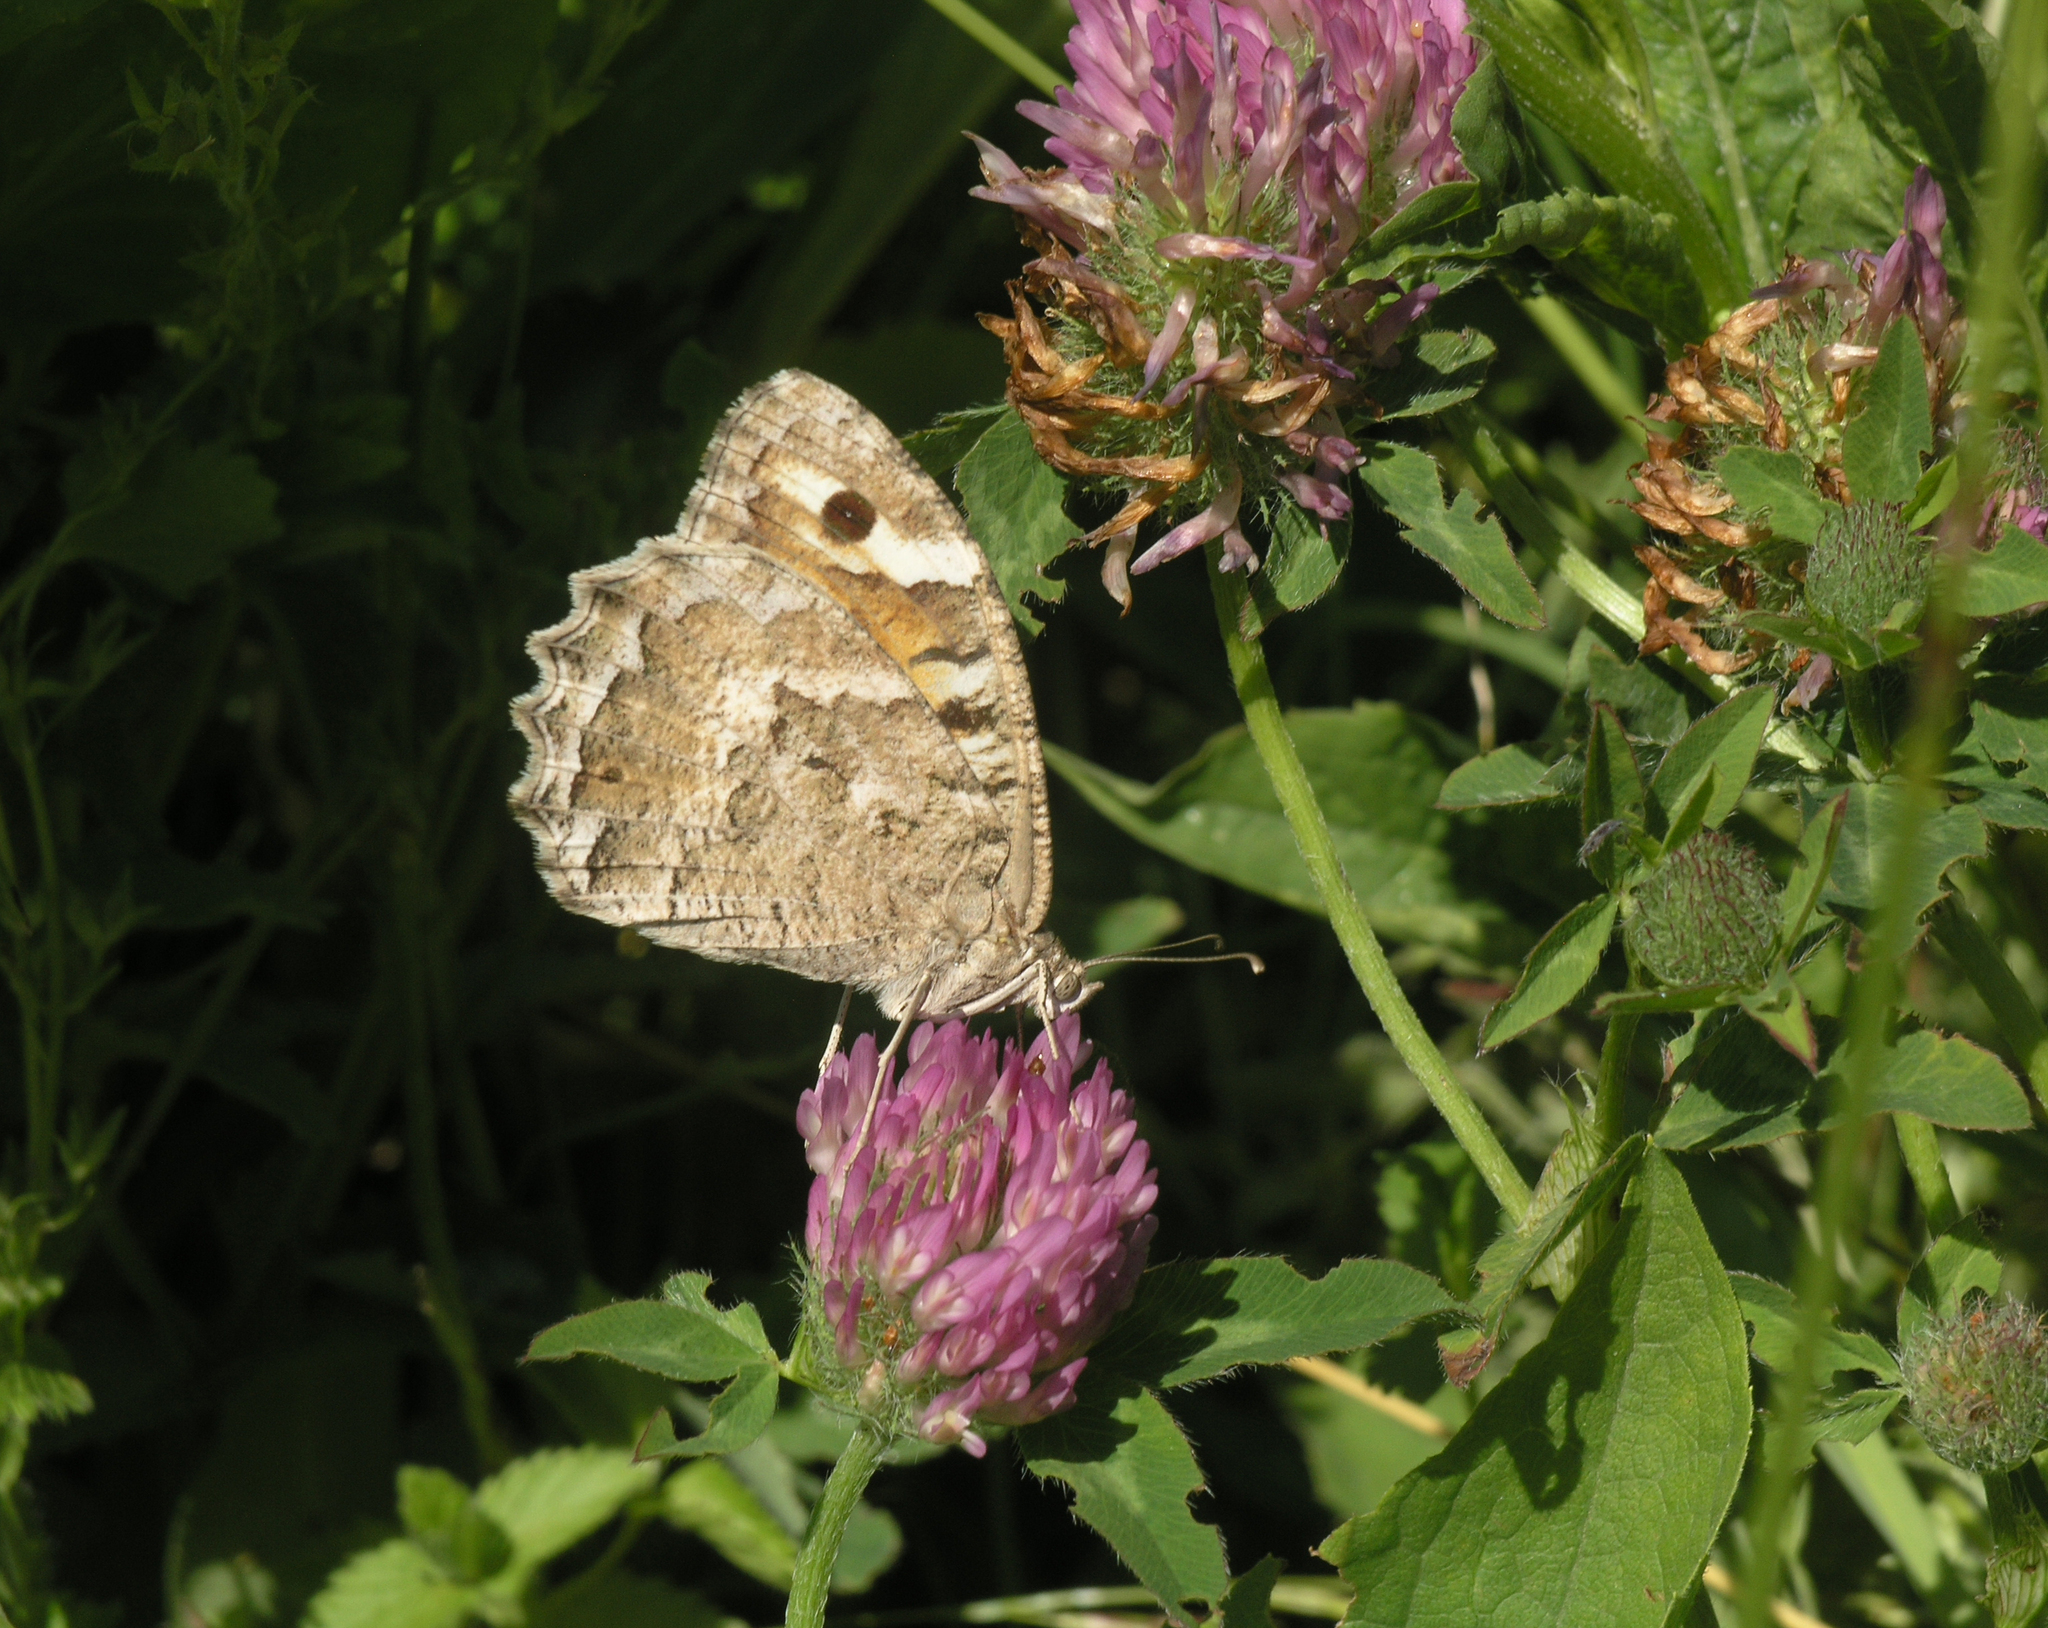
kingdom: Animalia
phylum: Arthropoda
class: Insecta
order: Lepidoptera
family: Nymphalidae
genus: Satyrus
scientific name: Satyrus Chazara enervata
